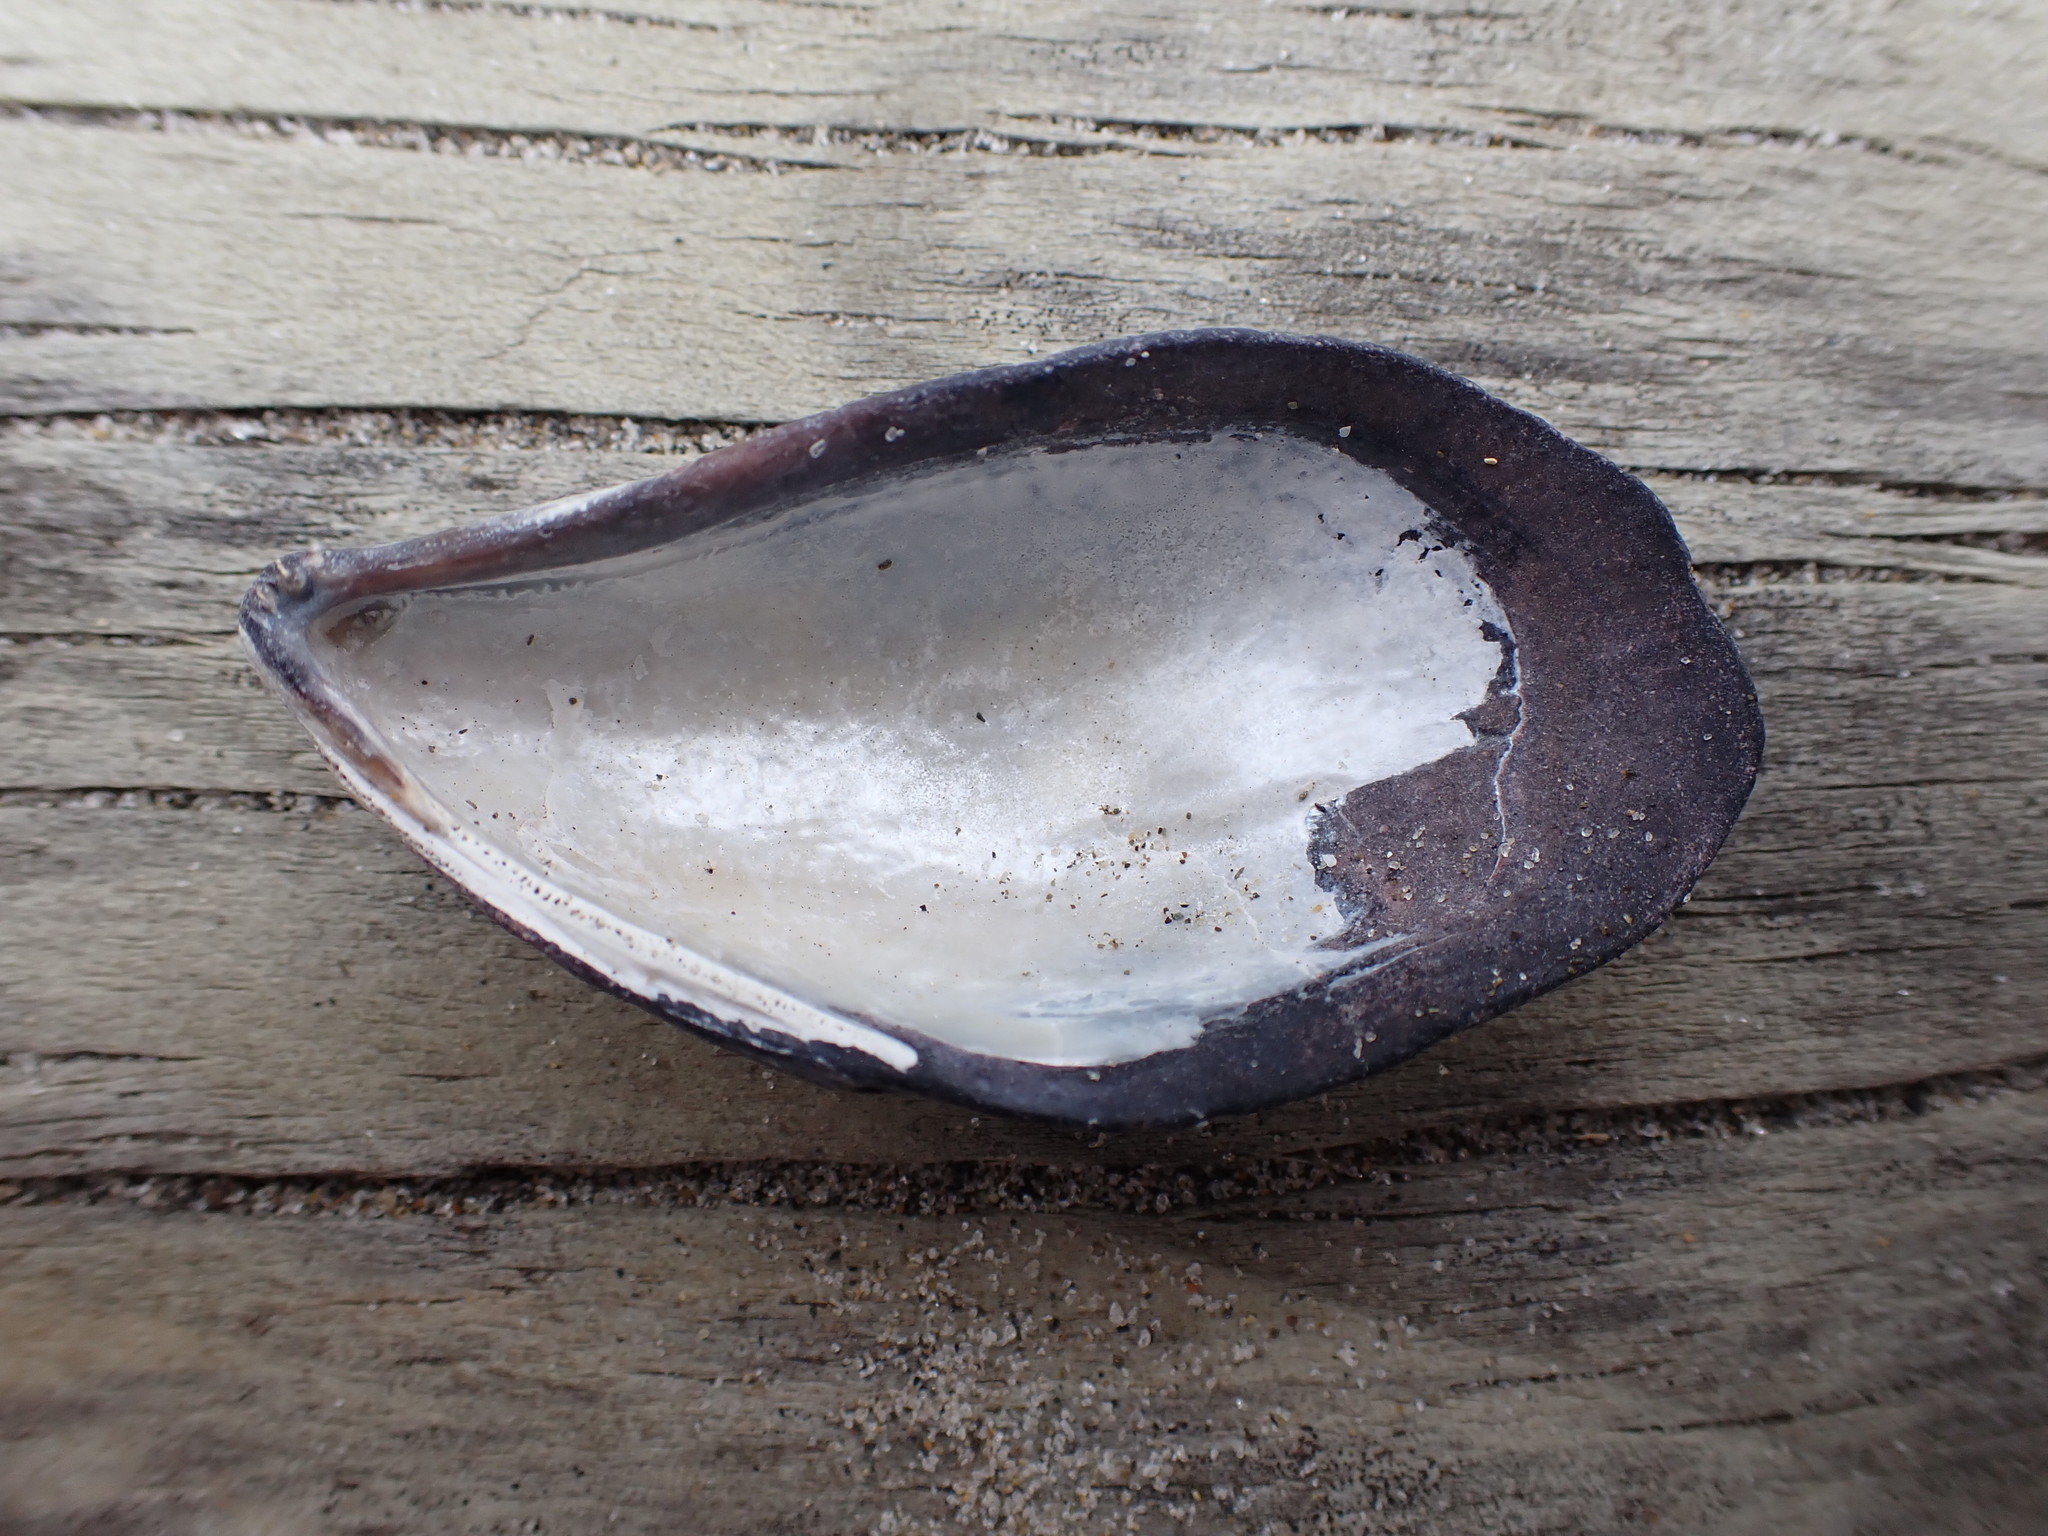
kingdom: Animalia
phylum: Mollusca
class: Bivalvia
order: Mytilida
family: Mytilidae
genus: Mytilus
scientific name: Mytilus planulatus
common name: Australian mussel
